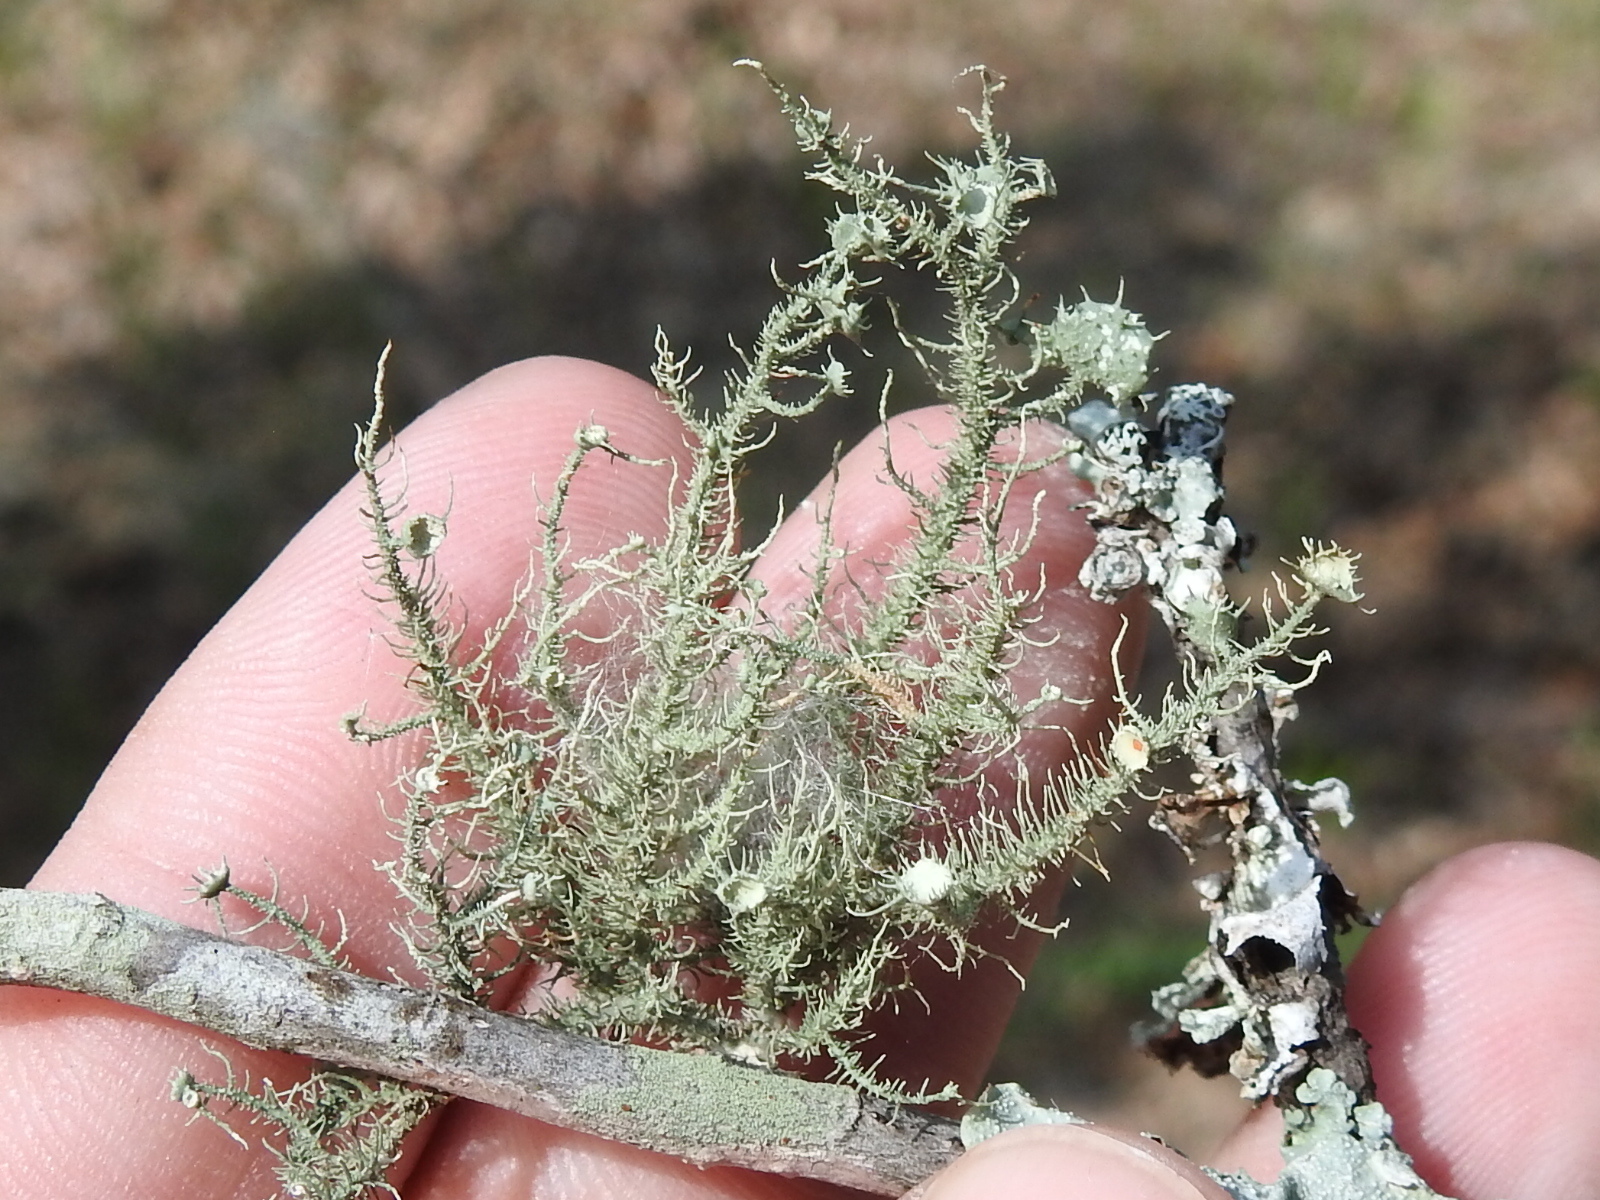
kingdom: Fungi
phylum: Ascomycota
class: Lecanoromycetes
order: Lecanorales
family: Parmeliaceae
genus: Usnea
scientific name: Usnea strigosa
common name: Bushy beard lichen
